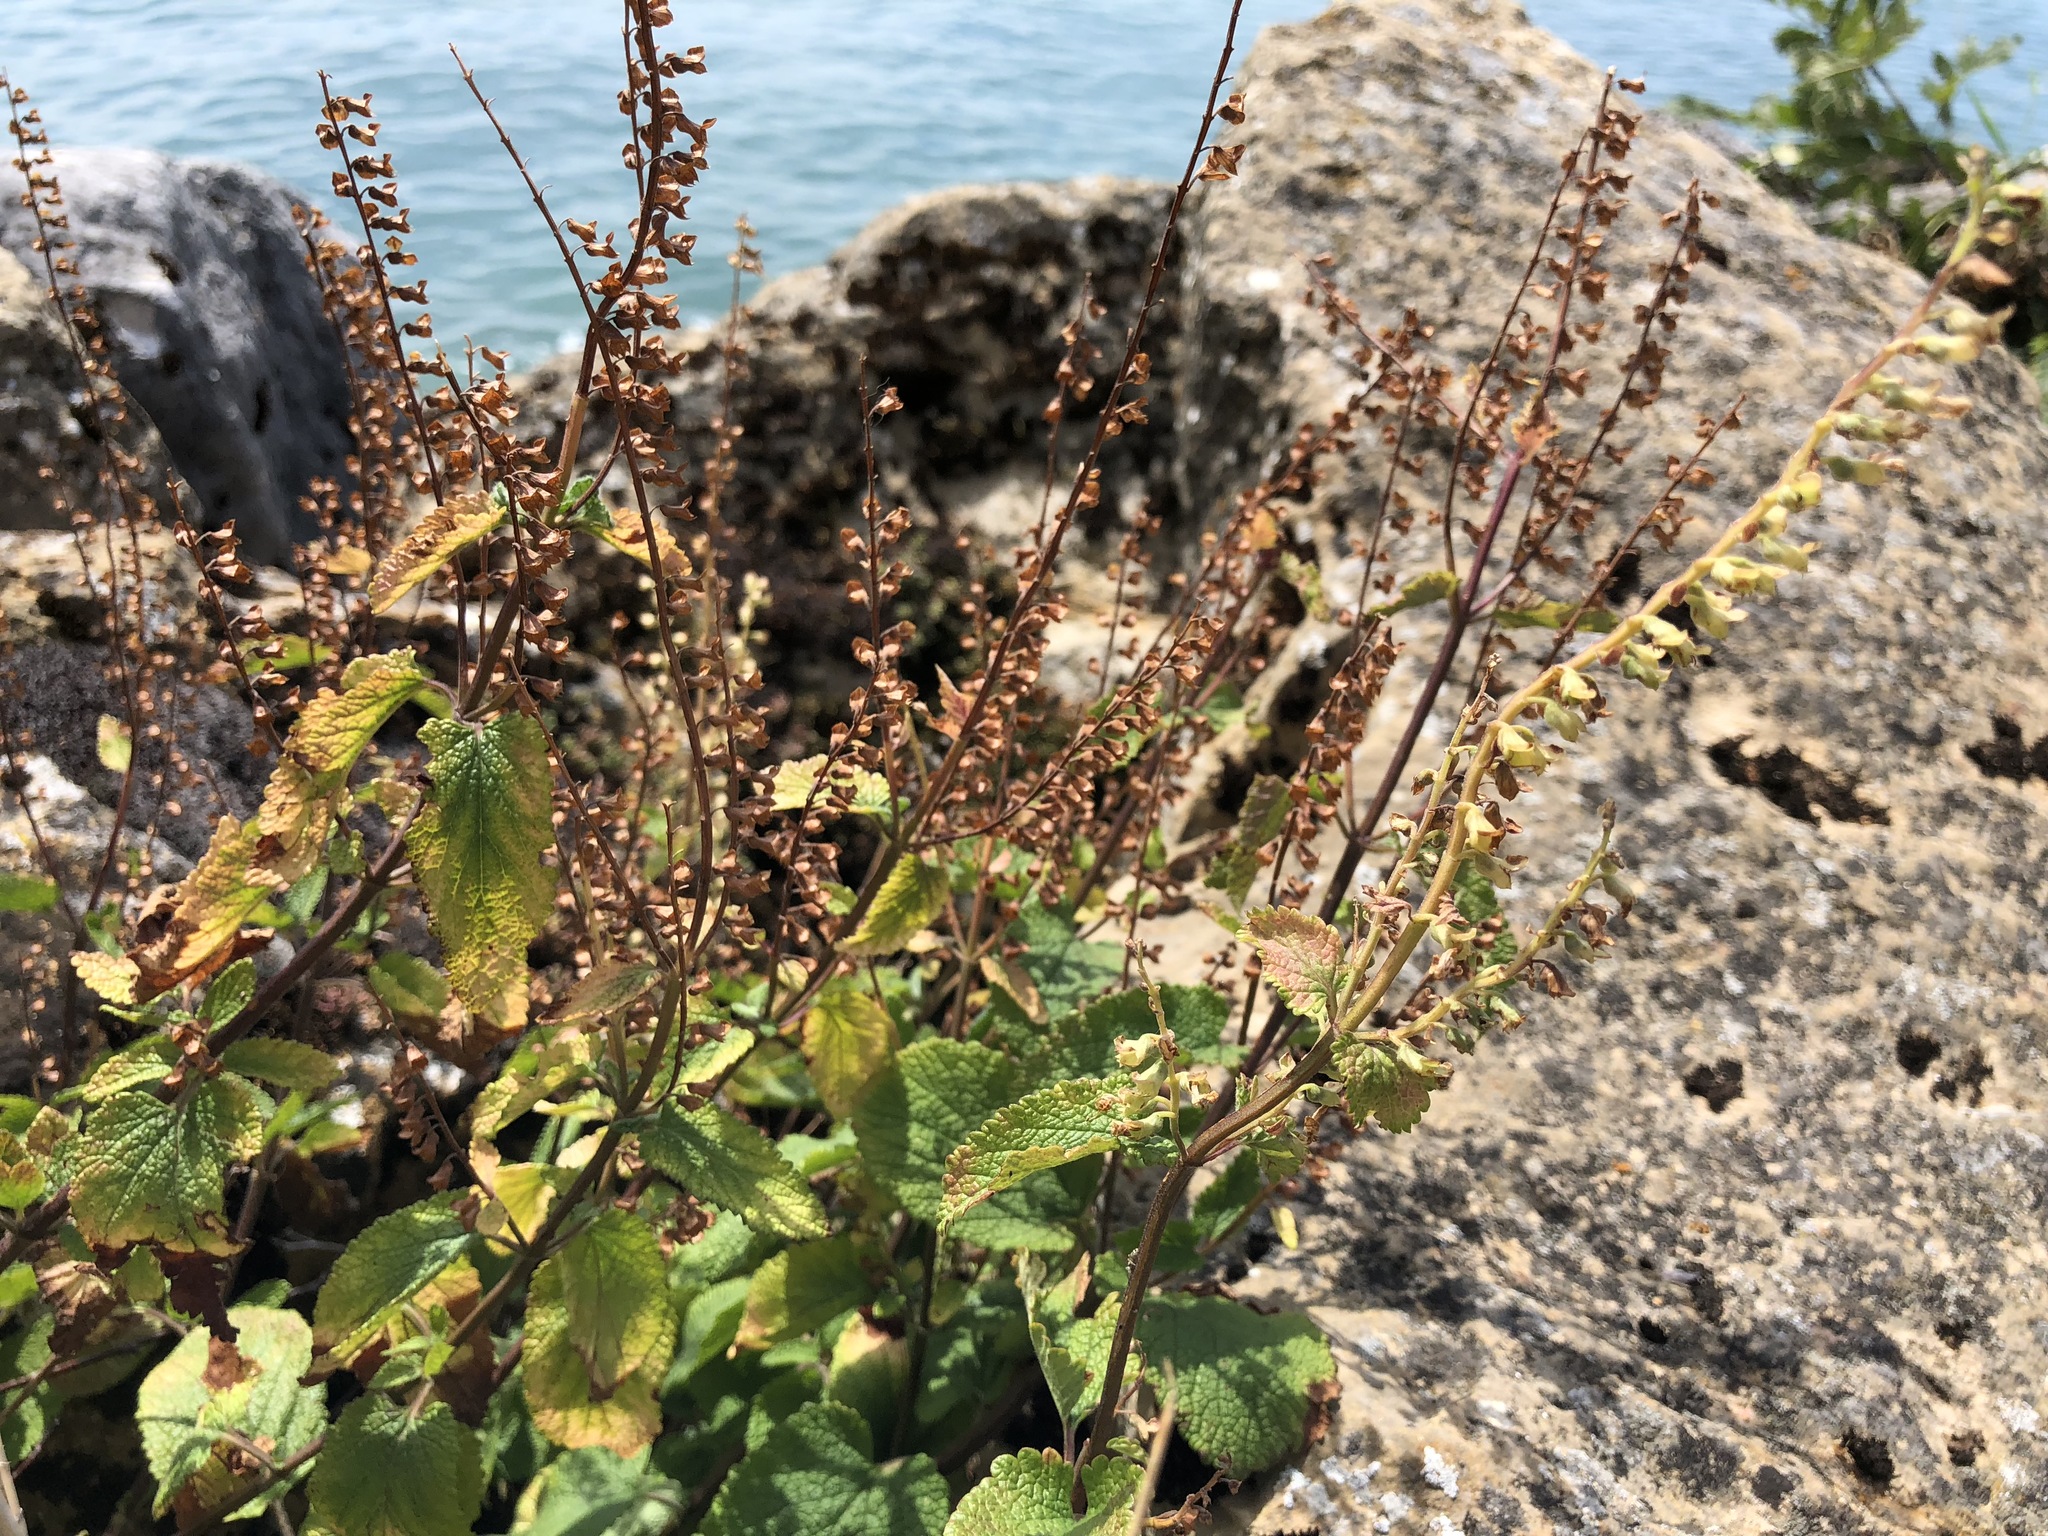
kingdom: Plantae
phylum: Tracheophyta
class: Magnoliopsida
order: Lamiales
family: Lamiaceae
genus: Teucrium
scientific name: Teucrium scorodonia
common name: Woodland germander
